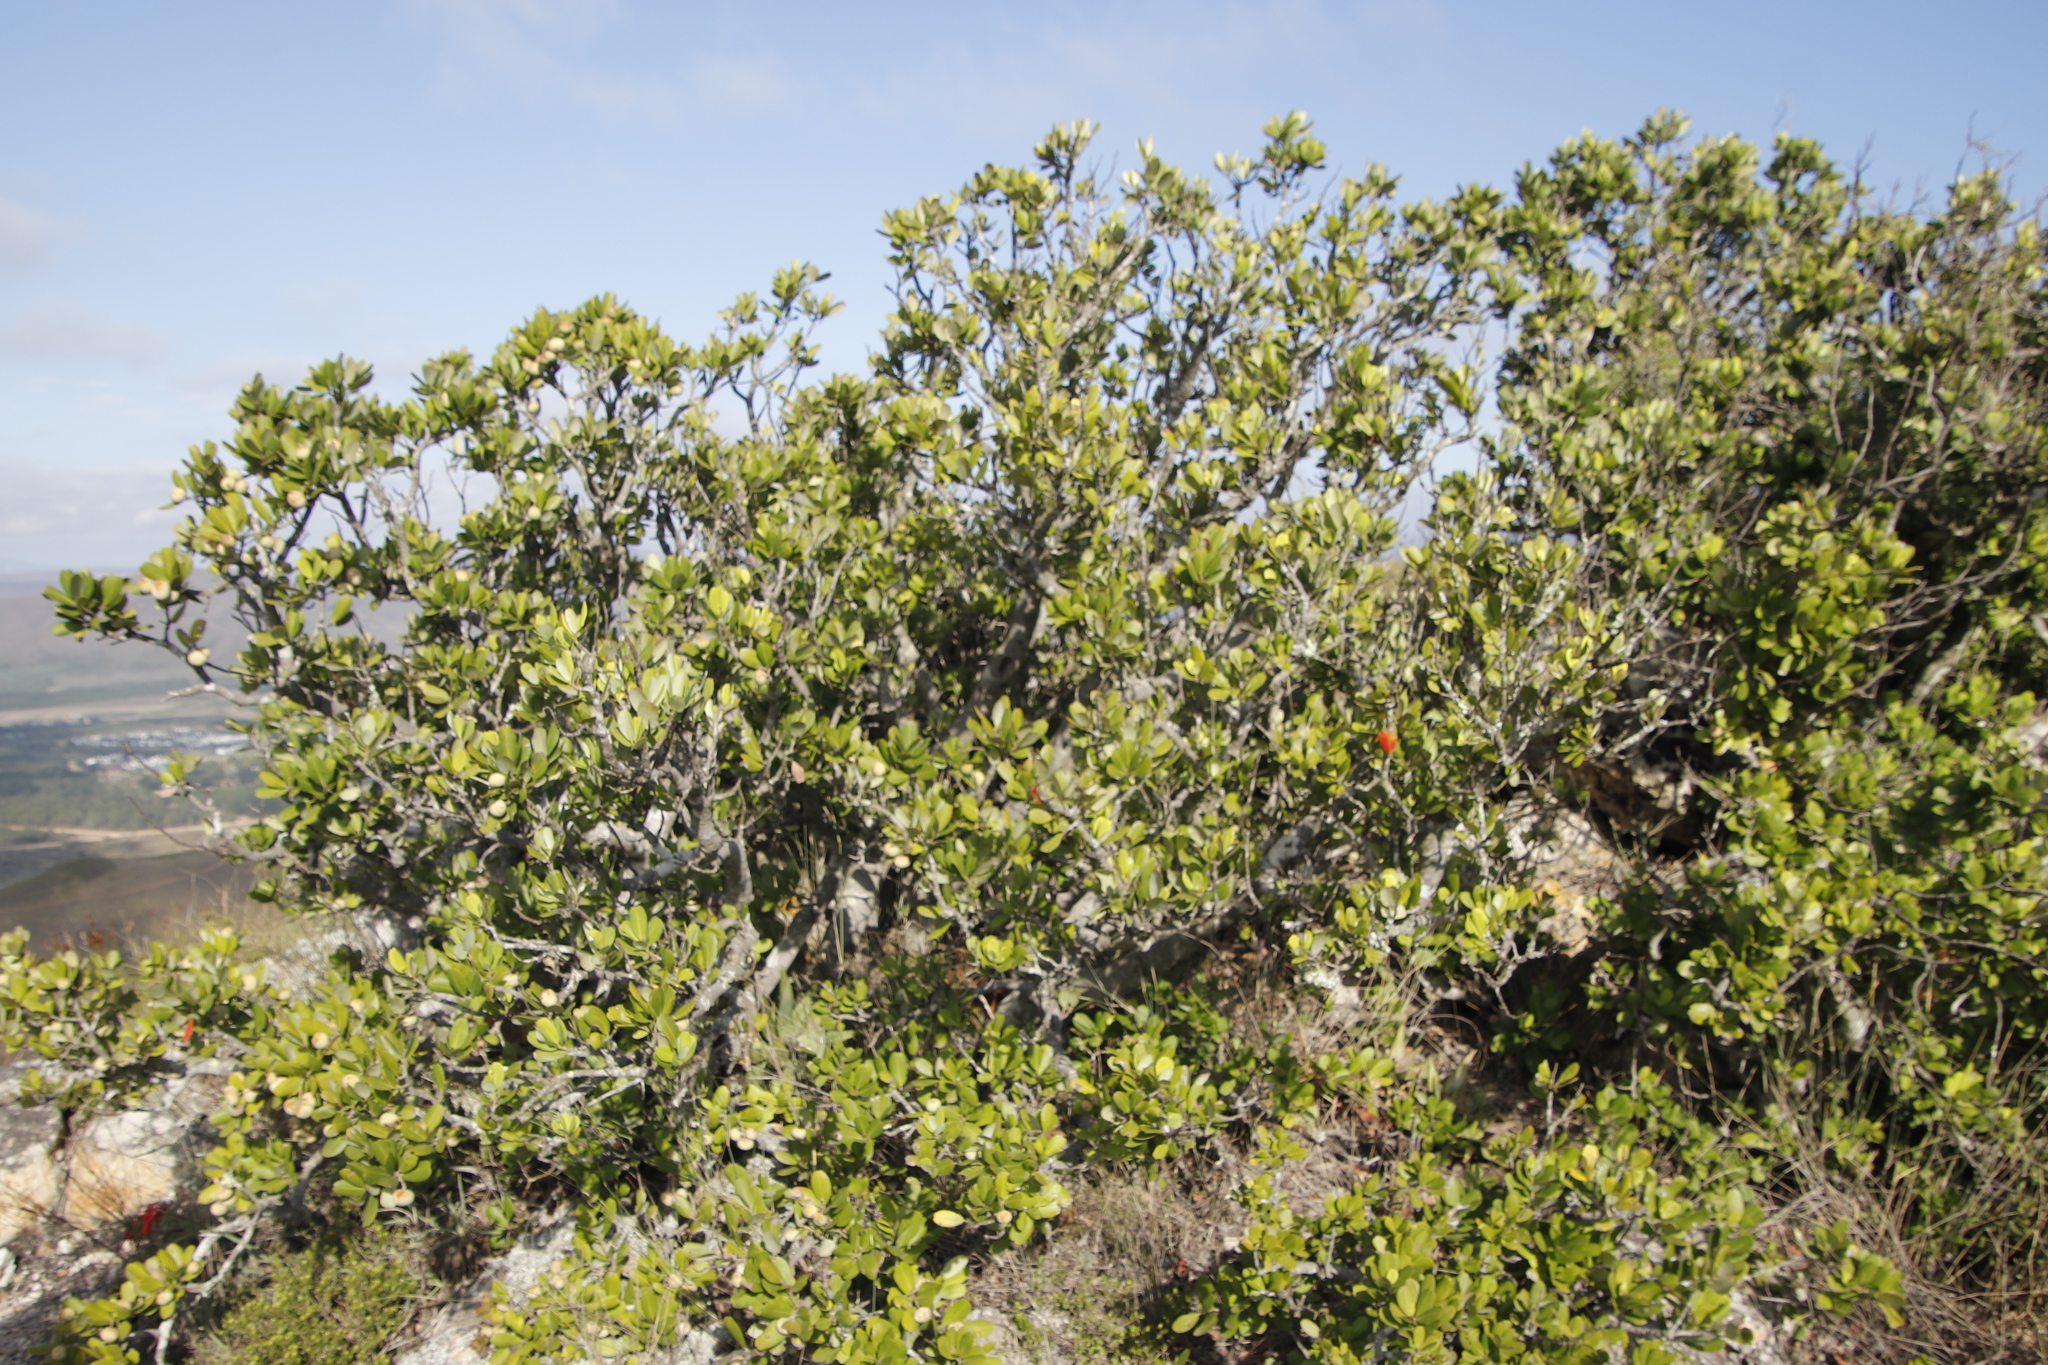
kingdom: Plantae
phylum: Tracheophyta
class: Magnoliopsida
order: Sapindales
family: Anacardiaceae
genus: Heeria
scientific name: Heeria argentea
